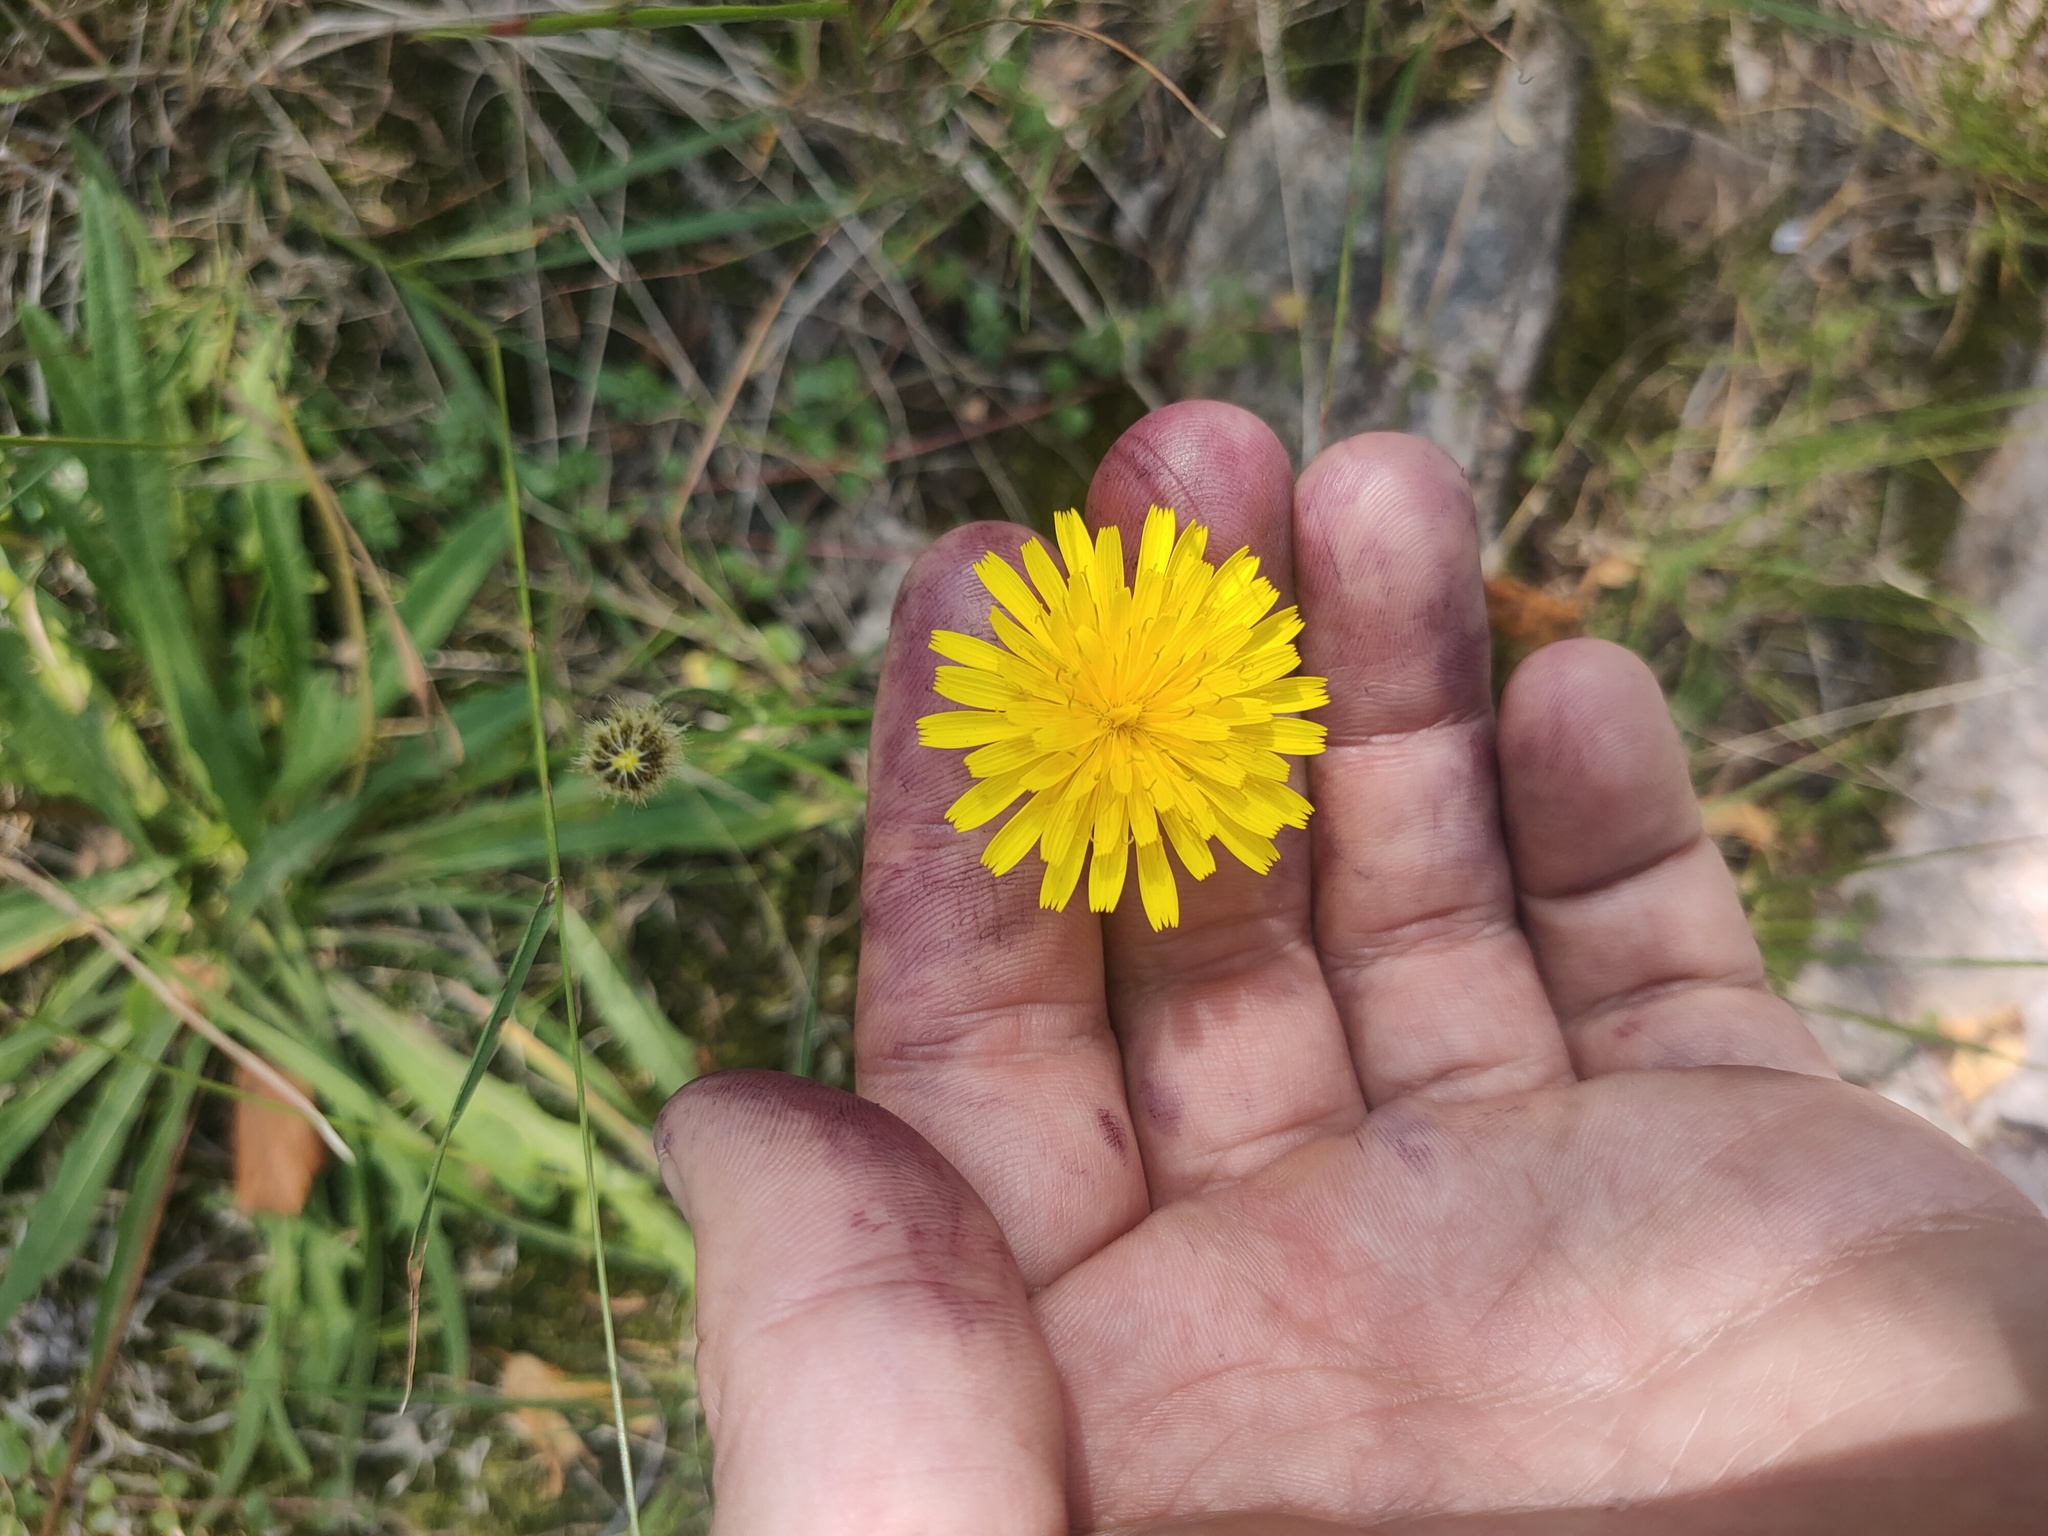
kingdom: Plantae
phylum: Tracheophyta
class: Magnoliopsida
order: Asterales
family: Asteraceae
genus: Scorzoneroides
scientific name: Scorzoneroides autumnalis
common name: Autumn hawkbit
